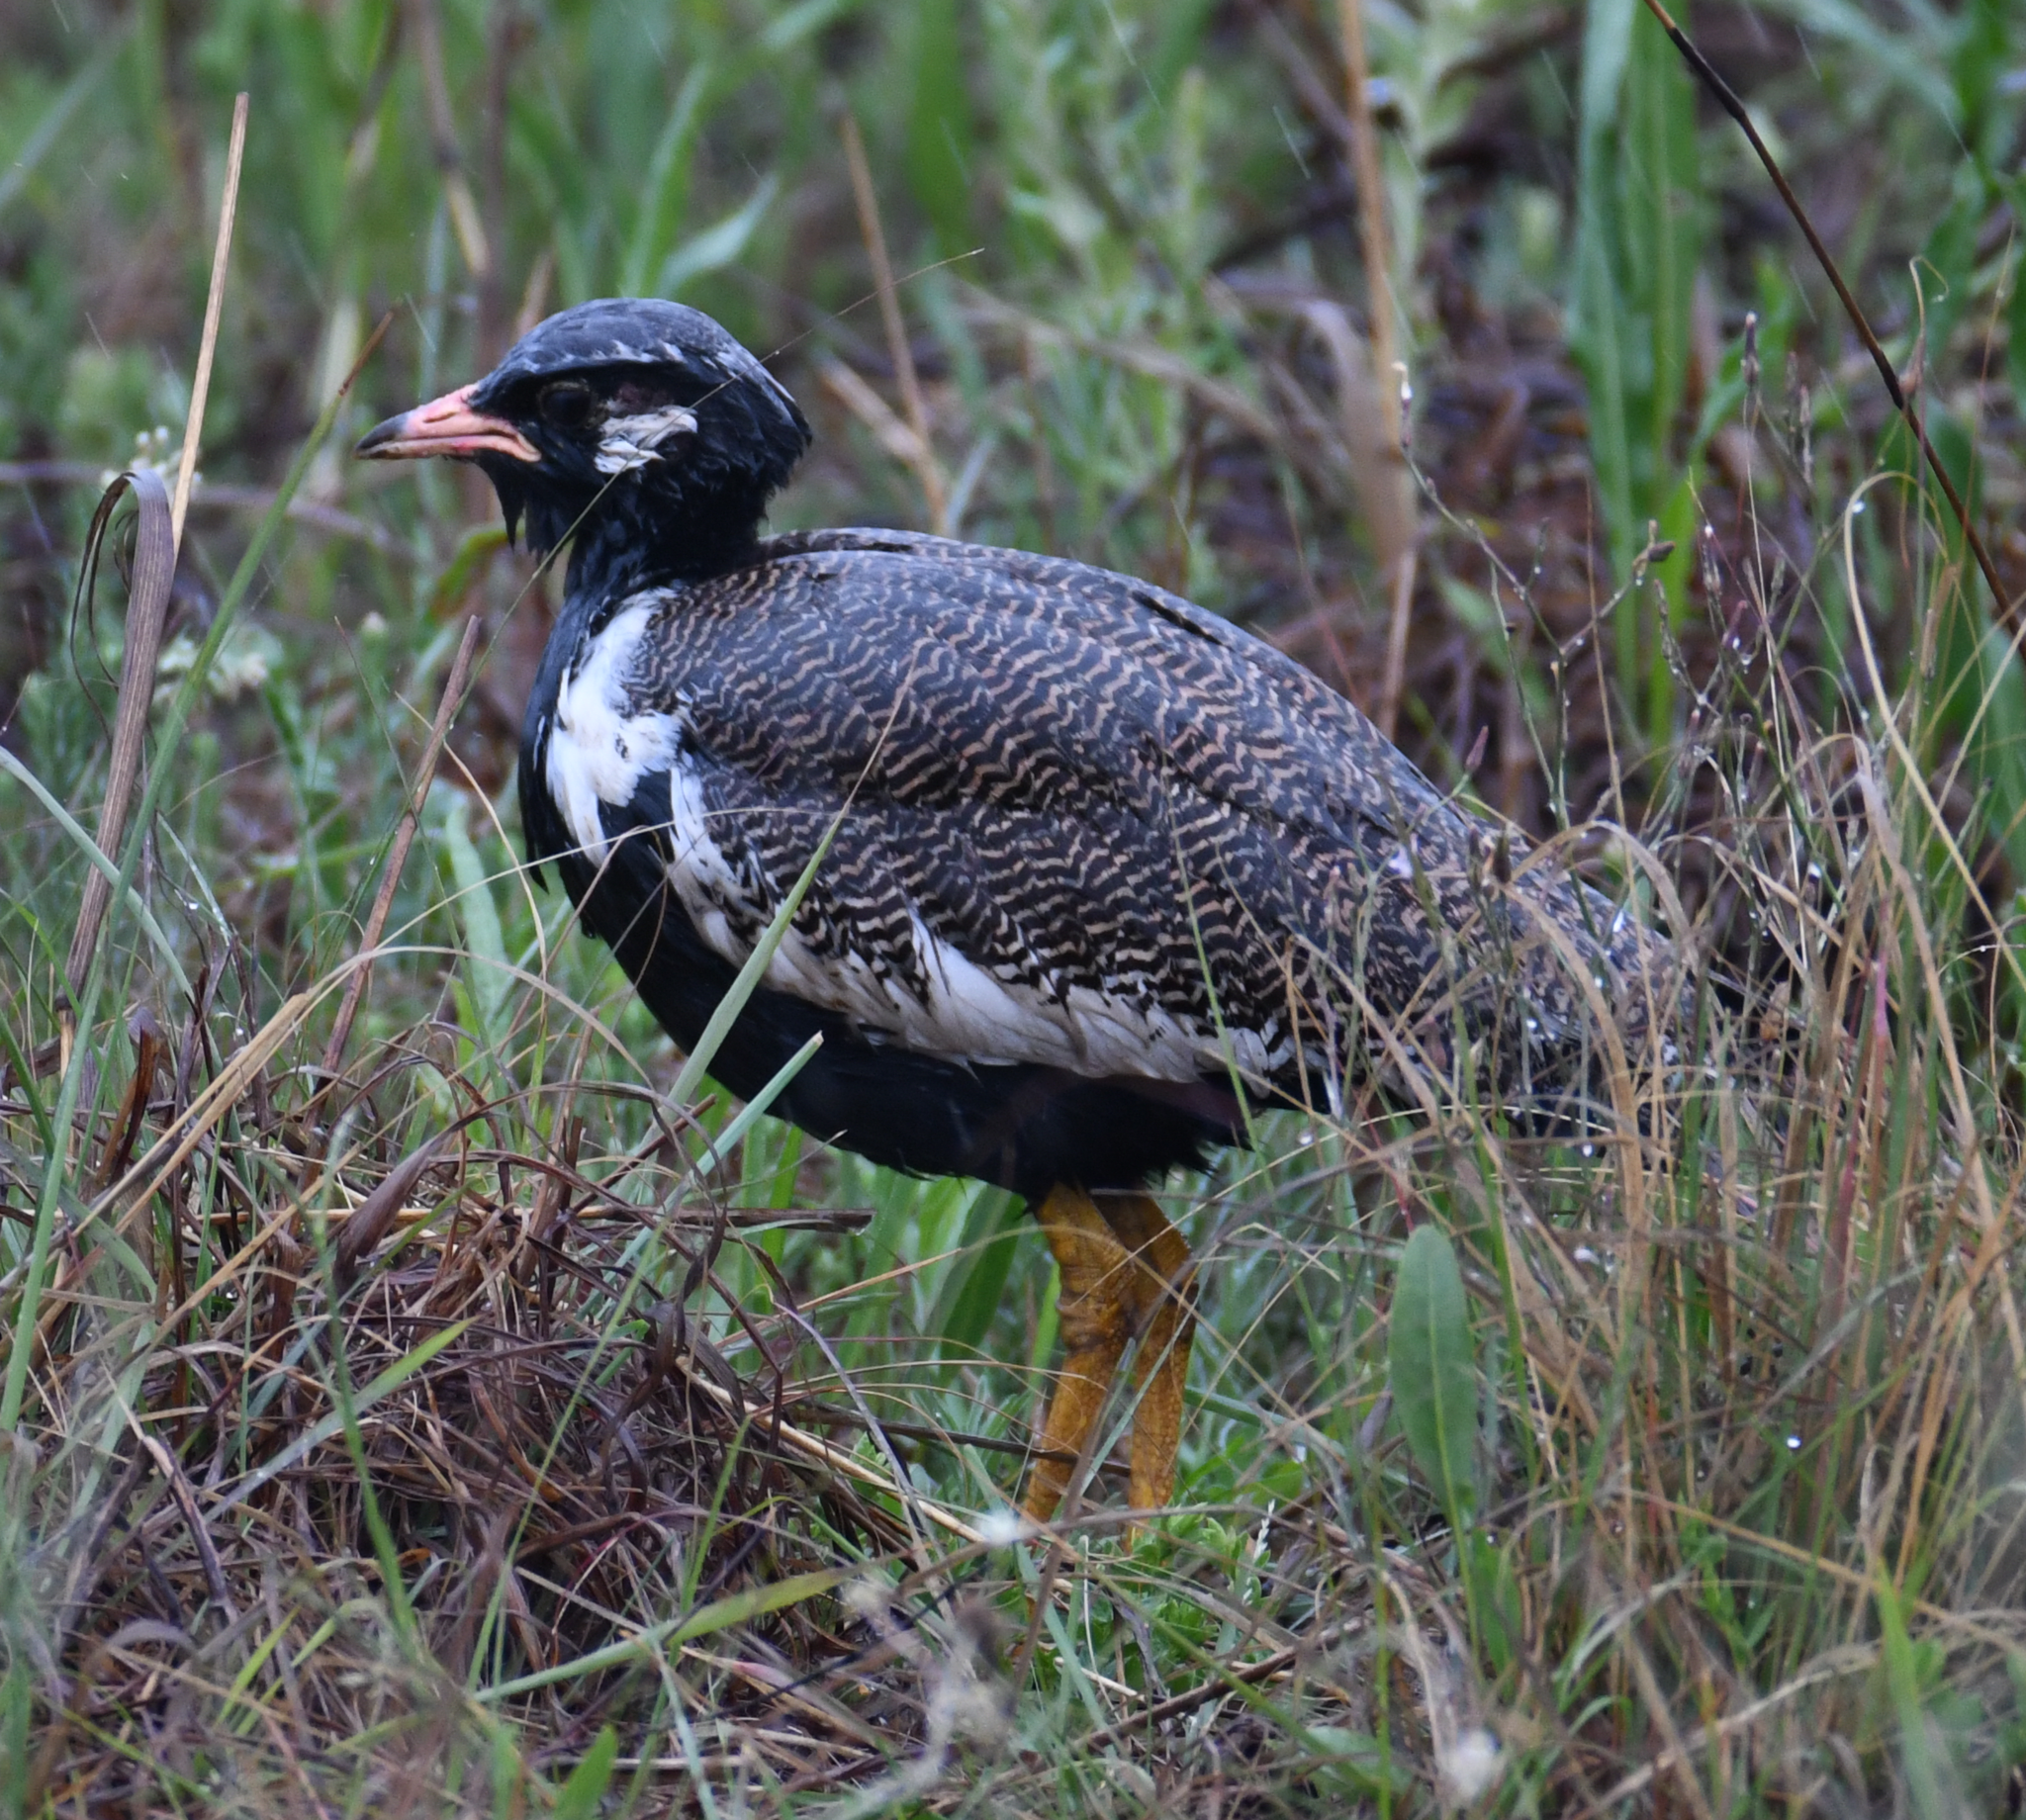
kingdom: Animalia
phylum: Chordata
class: Aves
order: Otidiformes
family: Otididae
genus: Afrotis
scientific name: Afrotis afraoides
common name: Northern black korhaan
